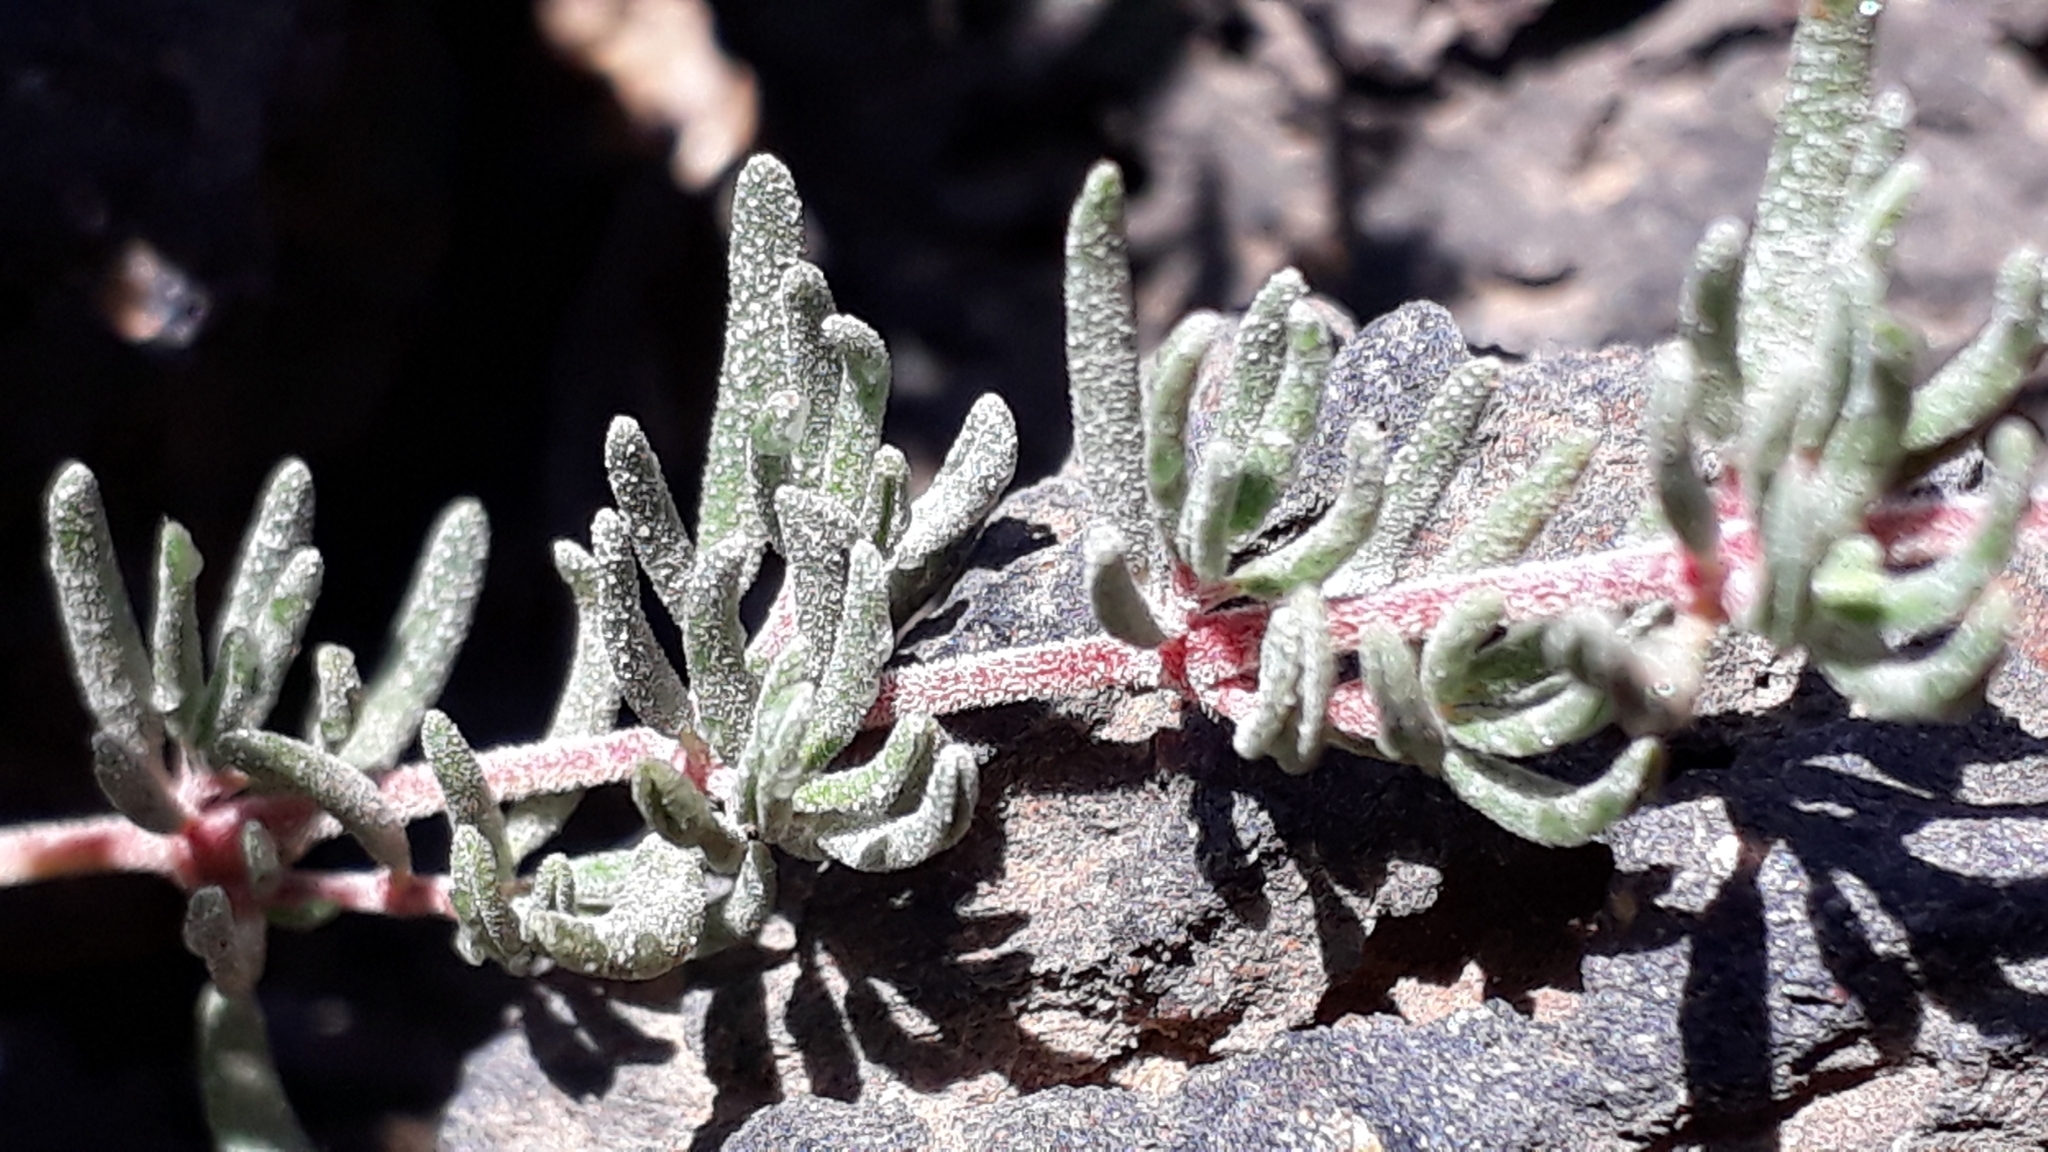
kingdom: Plantae
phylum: Tracheophyta
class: Magnoliopsida
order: Caryophyllales
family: Frankeniaceae
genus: Frankenia
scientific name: Frankenia capitata
